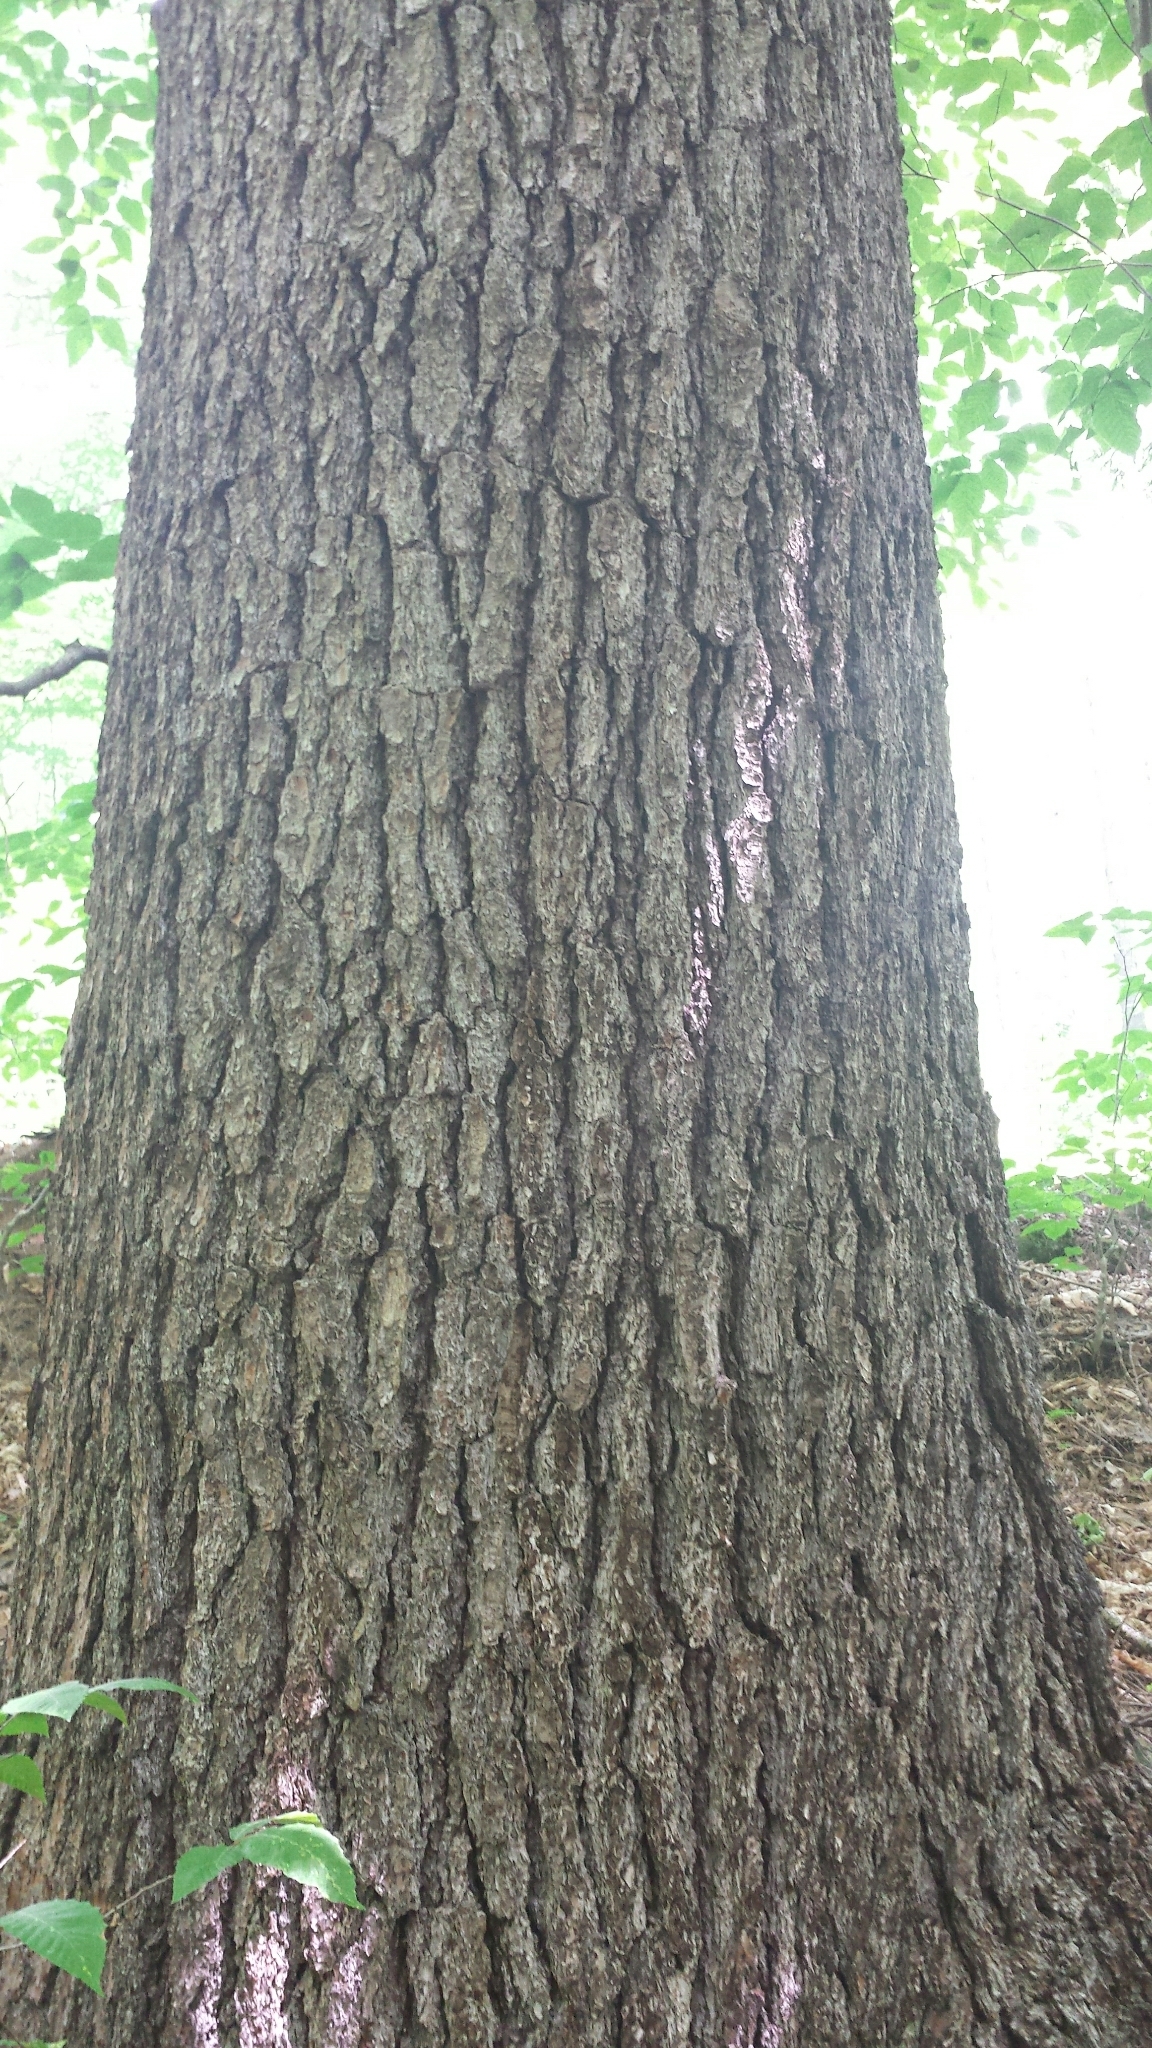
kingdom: Plantae
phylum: Tracheophyta
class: Pinopsida
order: Pinales
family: Pinaceae
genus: Pinus
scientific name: Pinus strobus
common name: Weymouth pine
